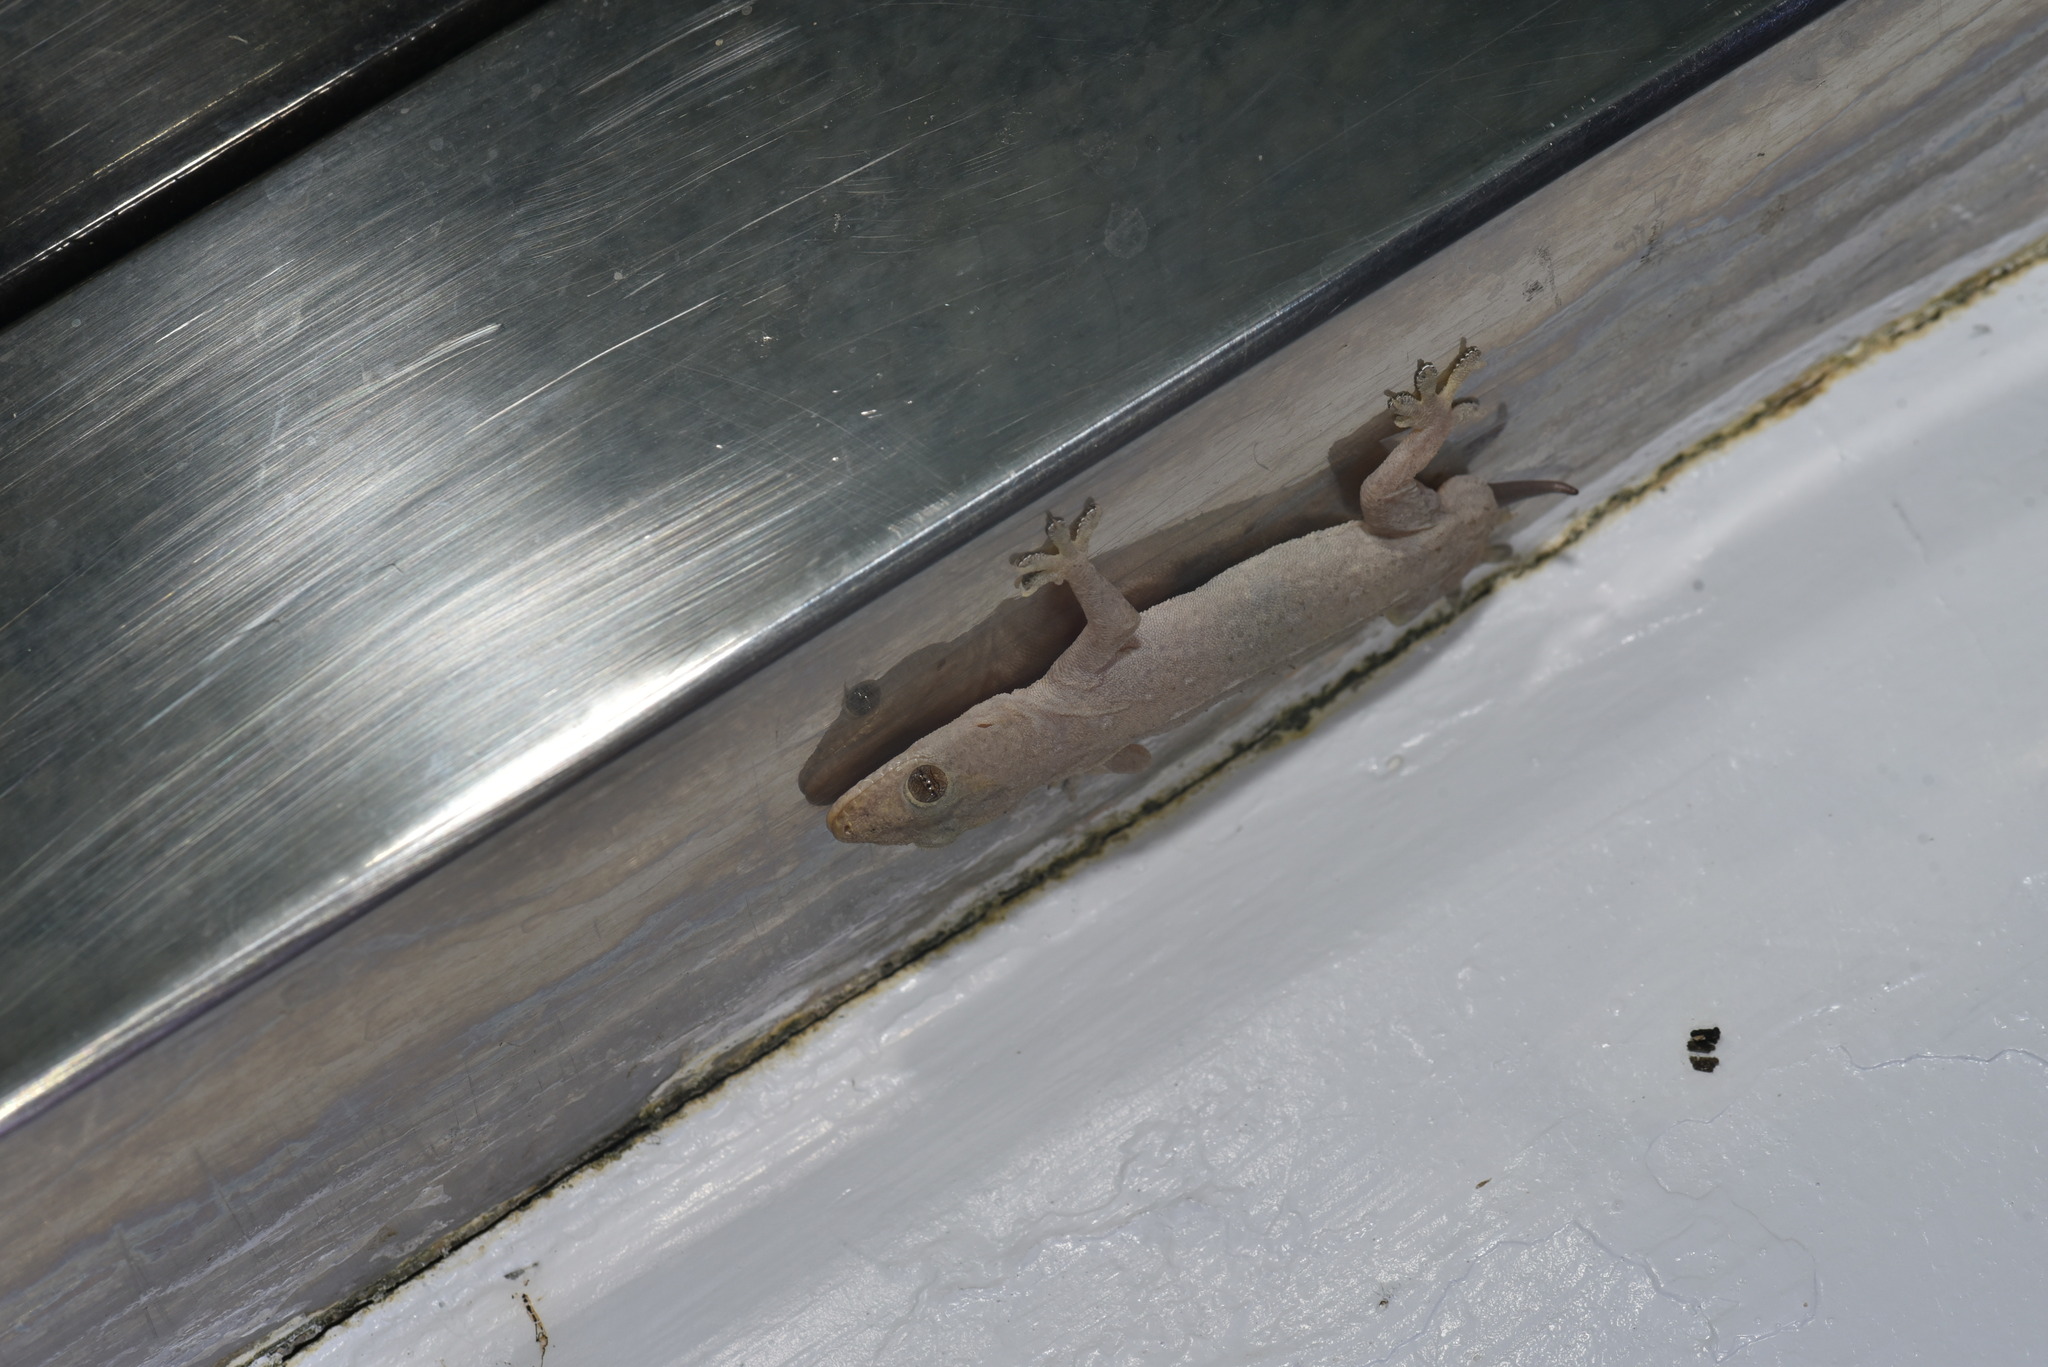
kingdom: Animalia
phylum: Chordata
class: Squamata
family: Gekkonidae
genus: Hemidactylus
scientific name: Hemidactylus frenatus
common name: Common house gecko
